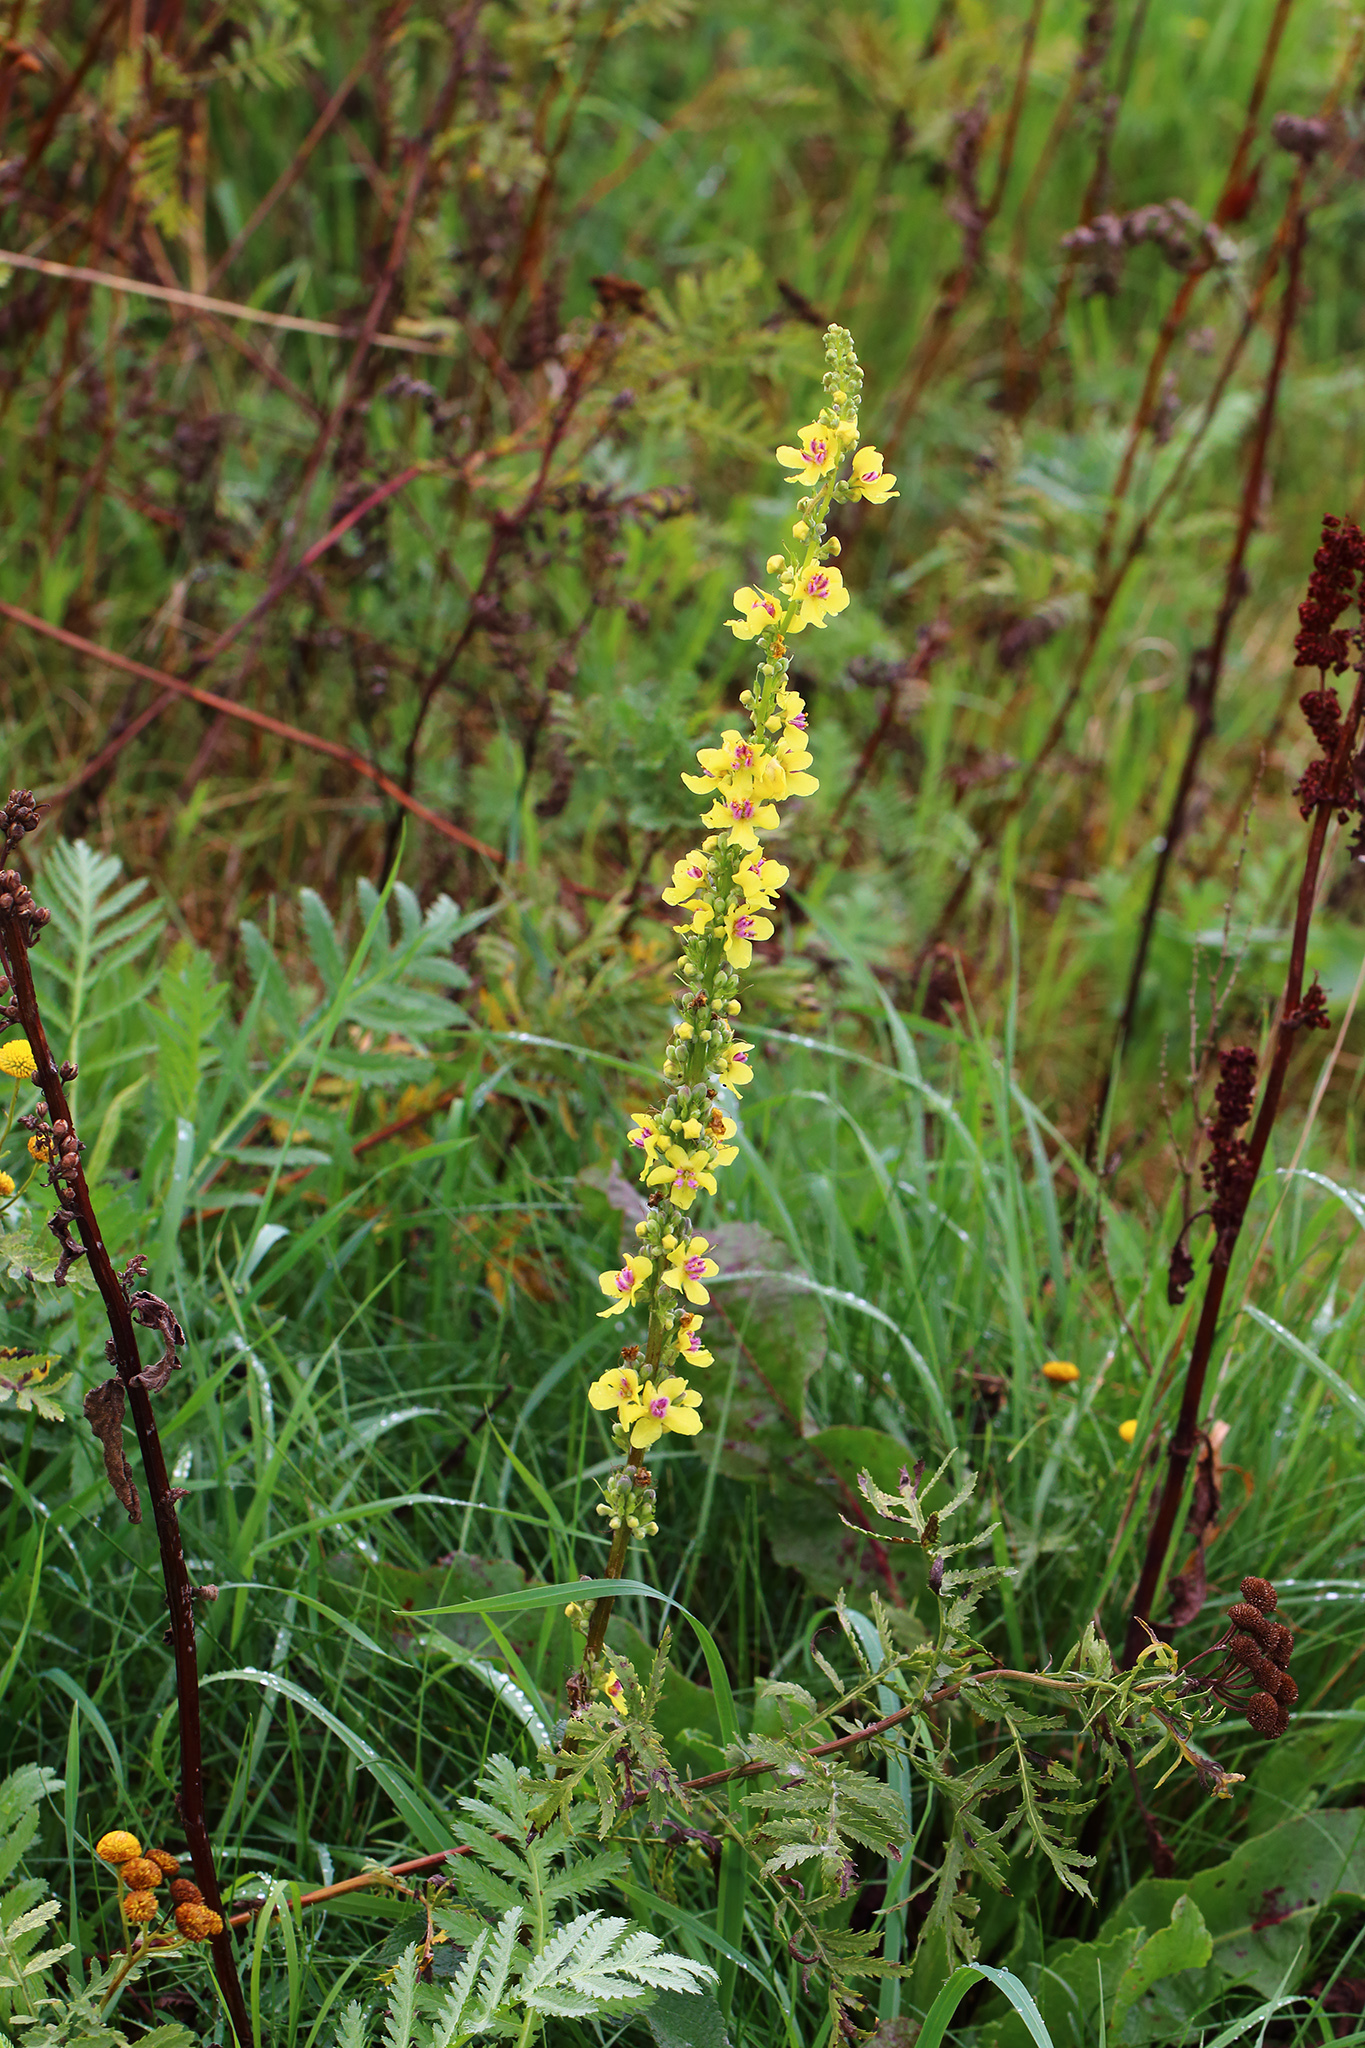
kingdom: Plantae
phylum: Tracheophyta
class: Magnoliopsida
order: Lamiales
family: Scrophulariaceae
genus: Verbascum
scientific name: Verbascum nigrum
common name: Dark mullein
